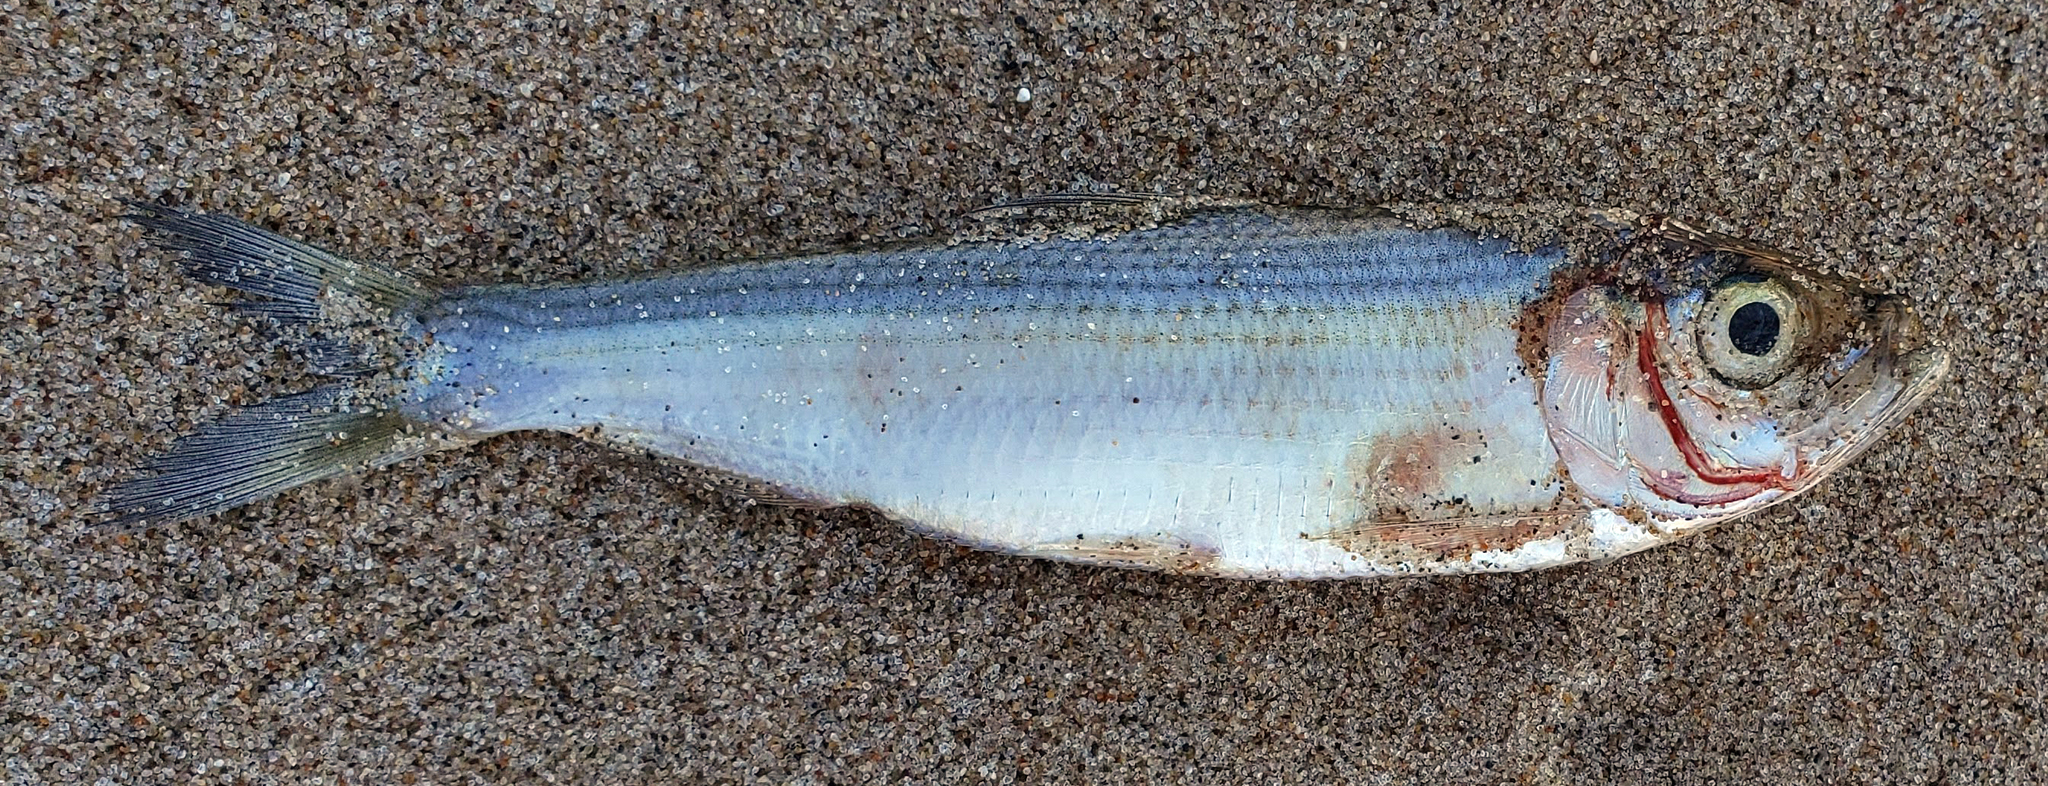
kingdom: Animalia
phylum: Chordata
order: Clupeiformes
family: Clupeidae
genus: Alosa
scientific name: Alosa pseudoharengus
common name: Alewife
